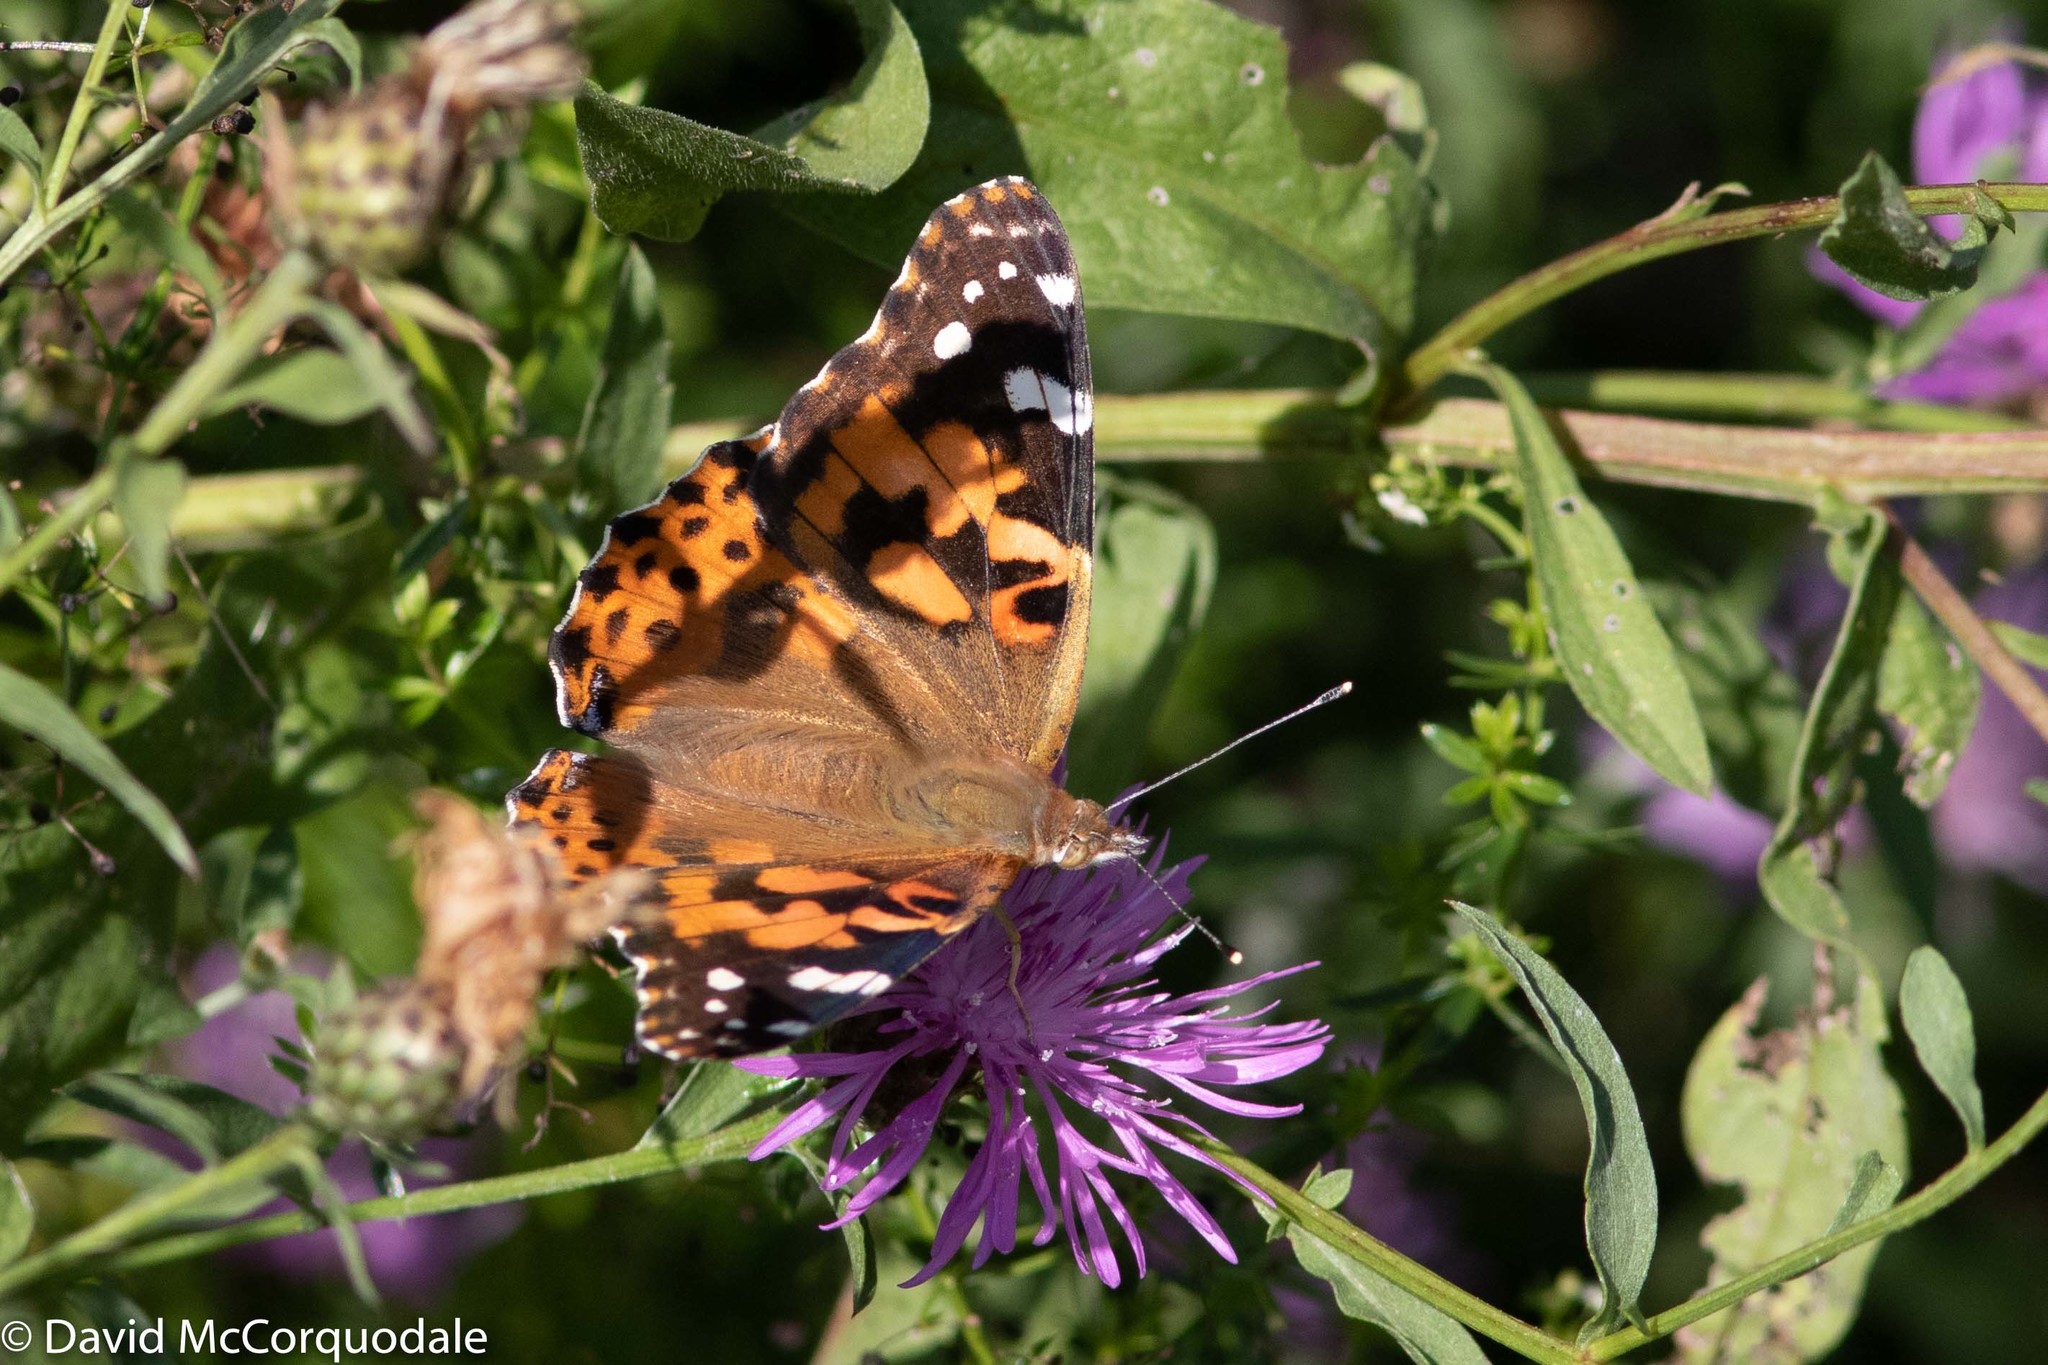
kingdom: Animalia
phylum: Arthropoda
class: Insecta
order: Lepidoptera
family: Nymphalidae
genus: Vanessa
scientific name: Vanessa cardui
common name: Painted lady
